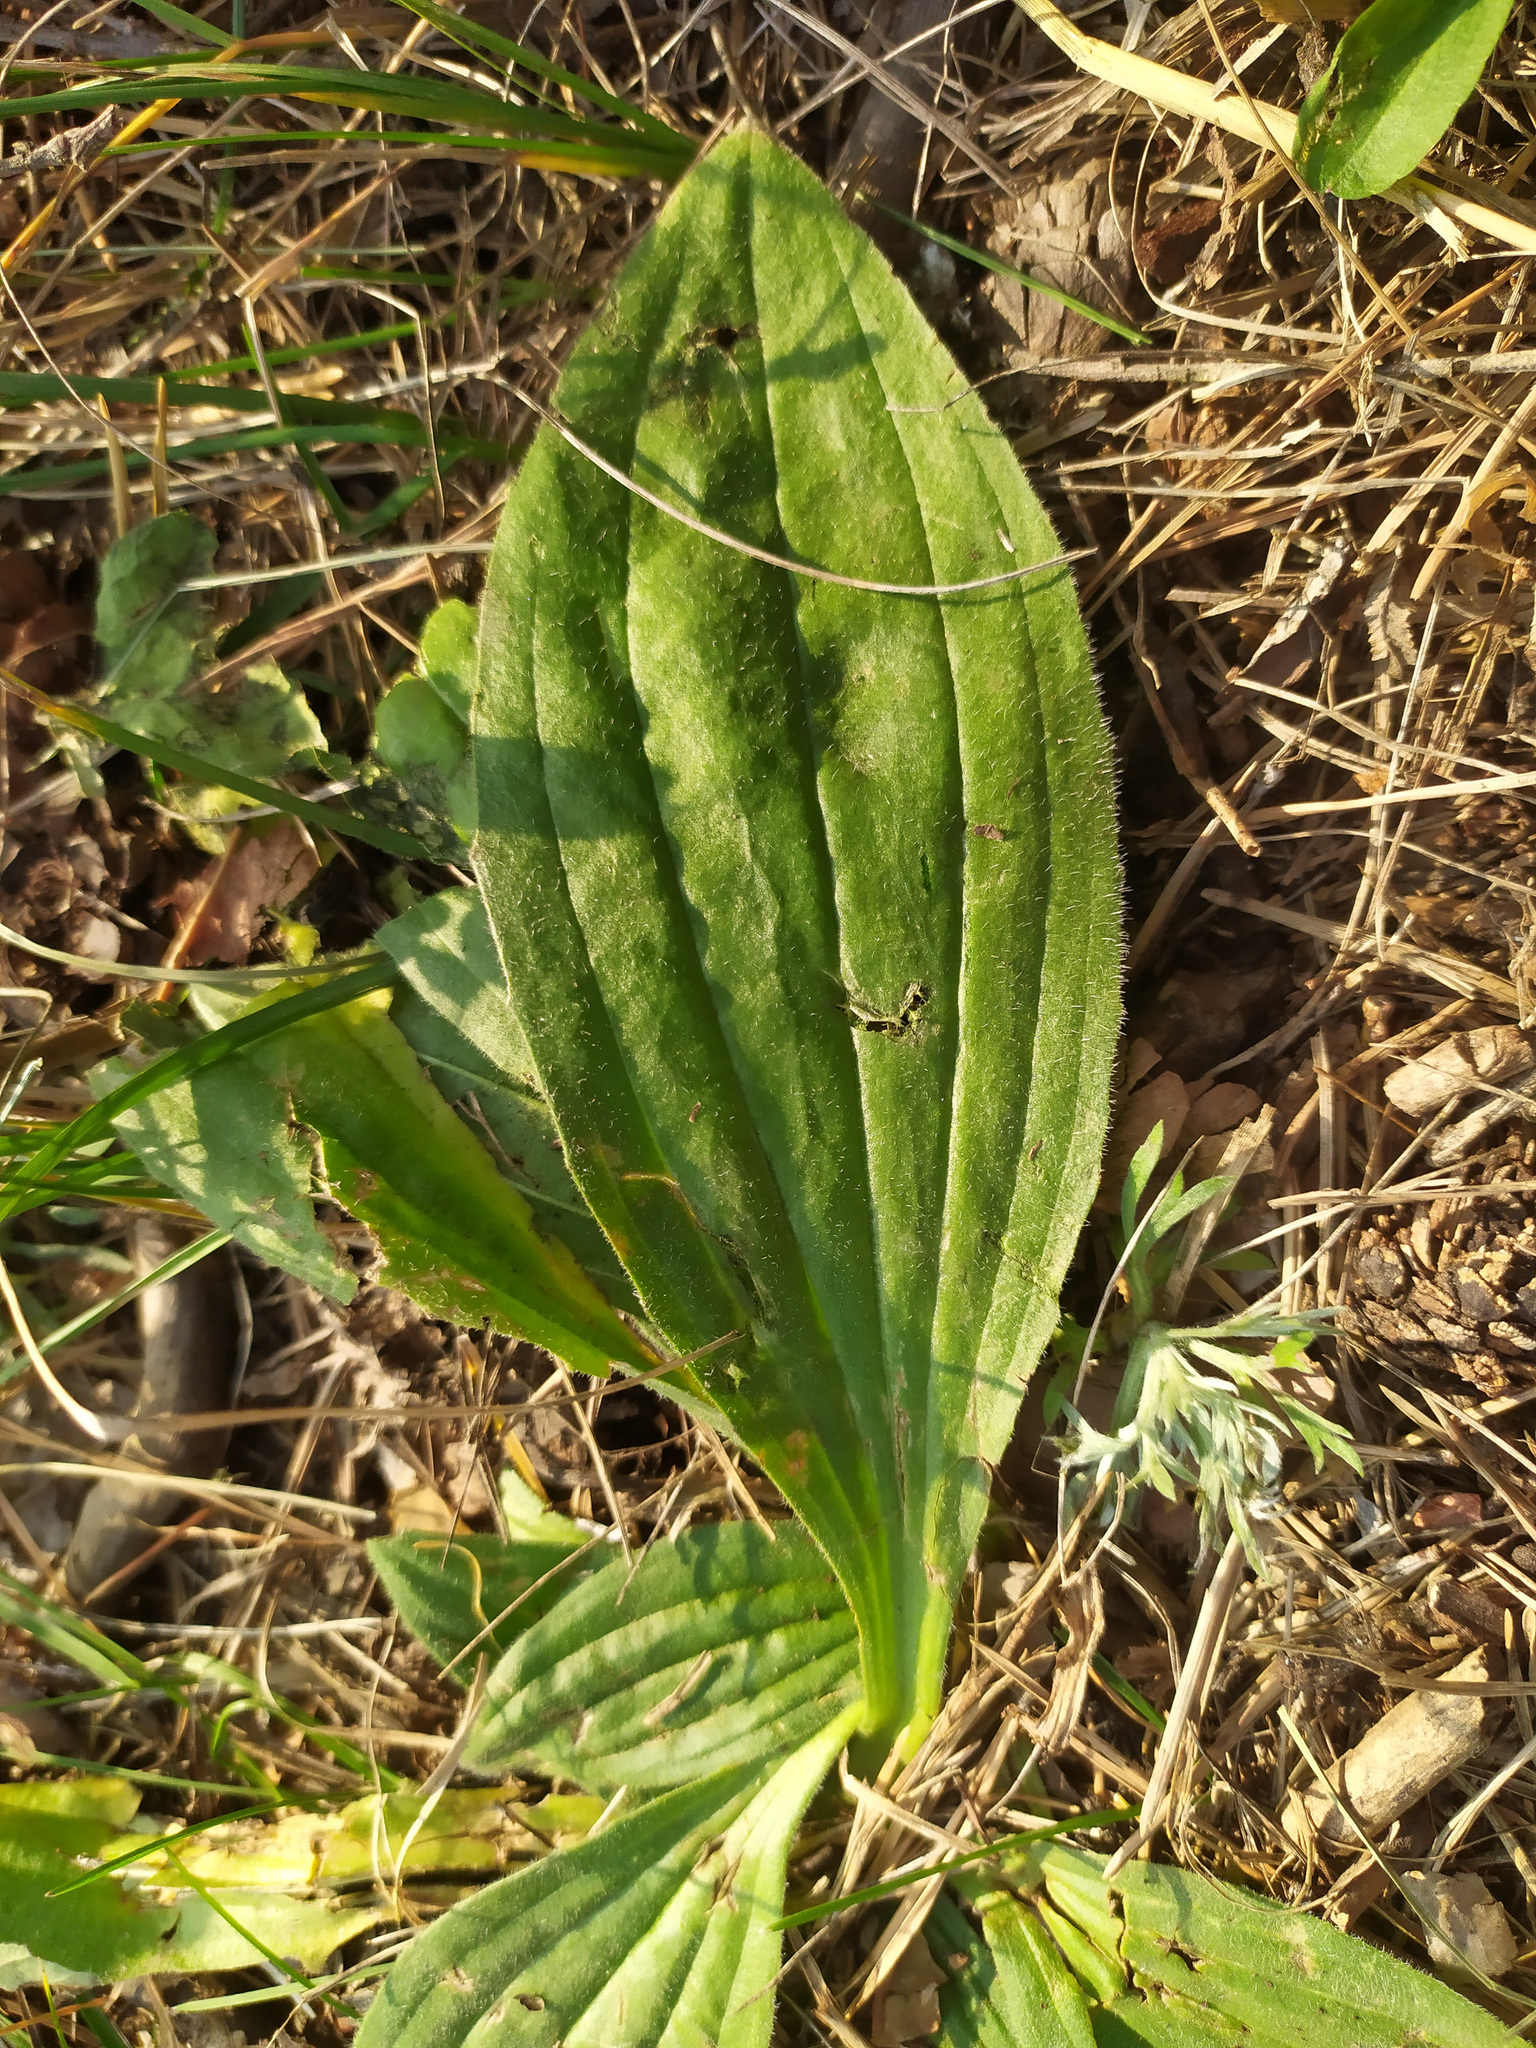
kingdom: Plantae
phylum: Tracheophyta
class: Magnoliopsida
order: Lamiales
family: Plantaginaceae
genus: Plantago
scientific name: Plantago media
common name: Hoary plantain
